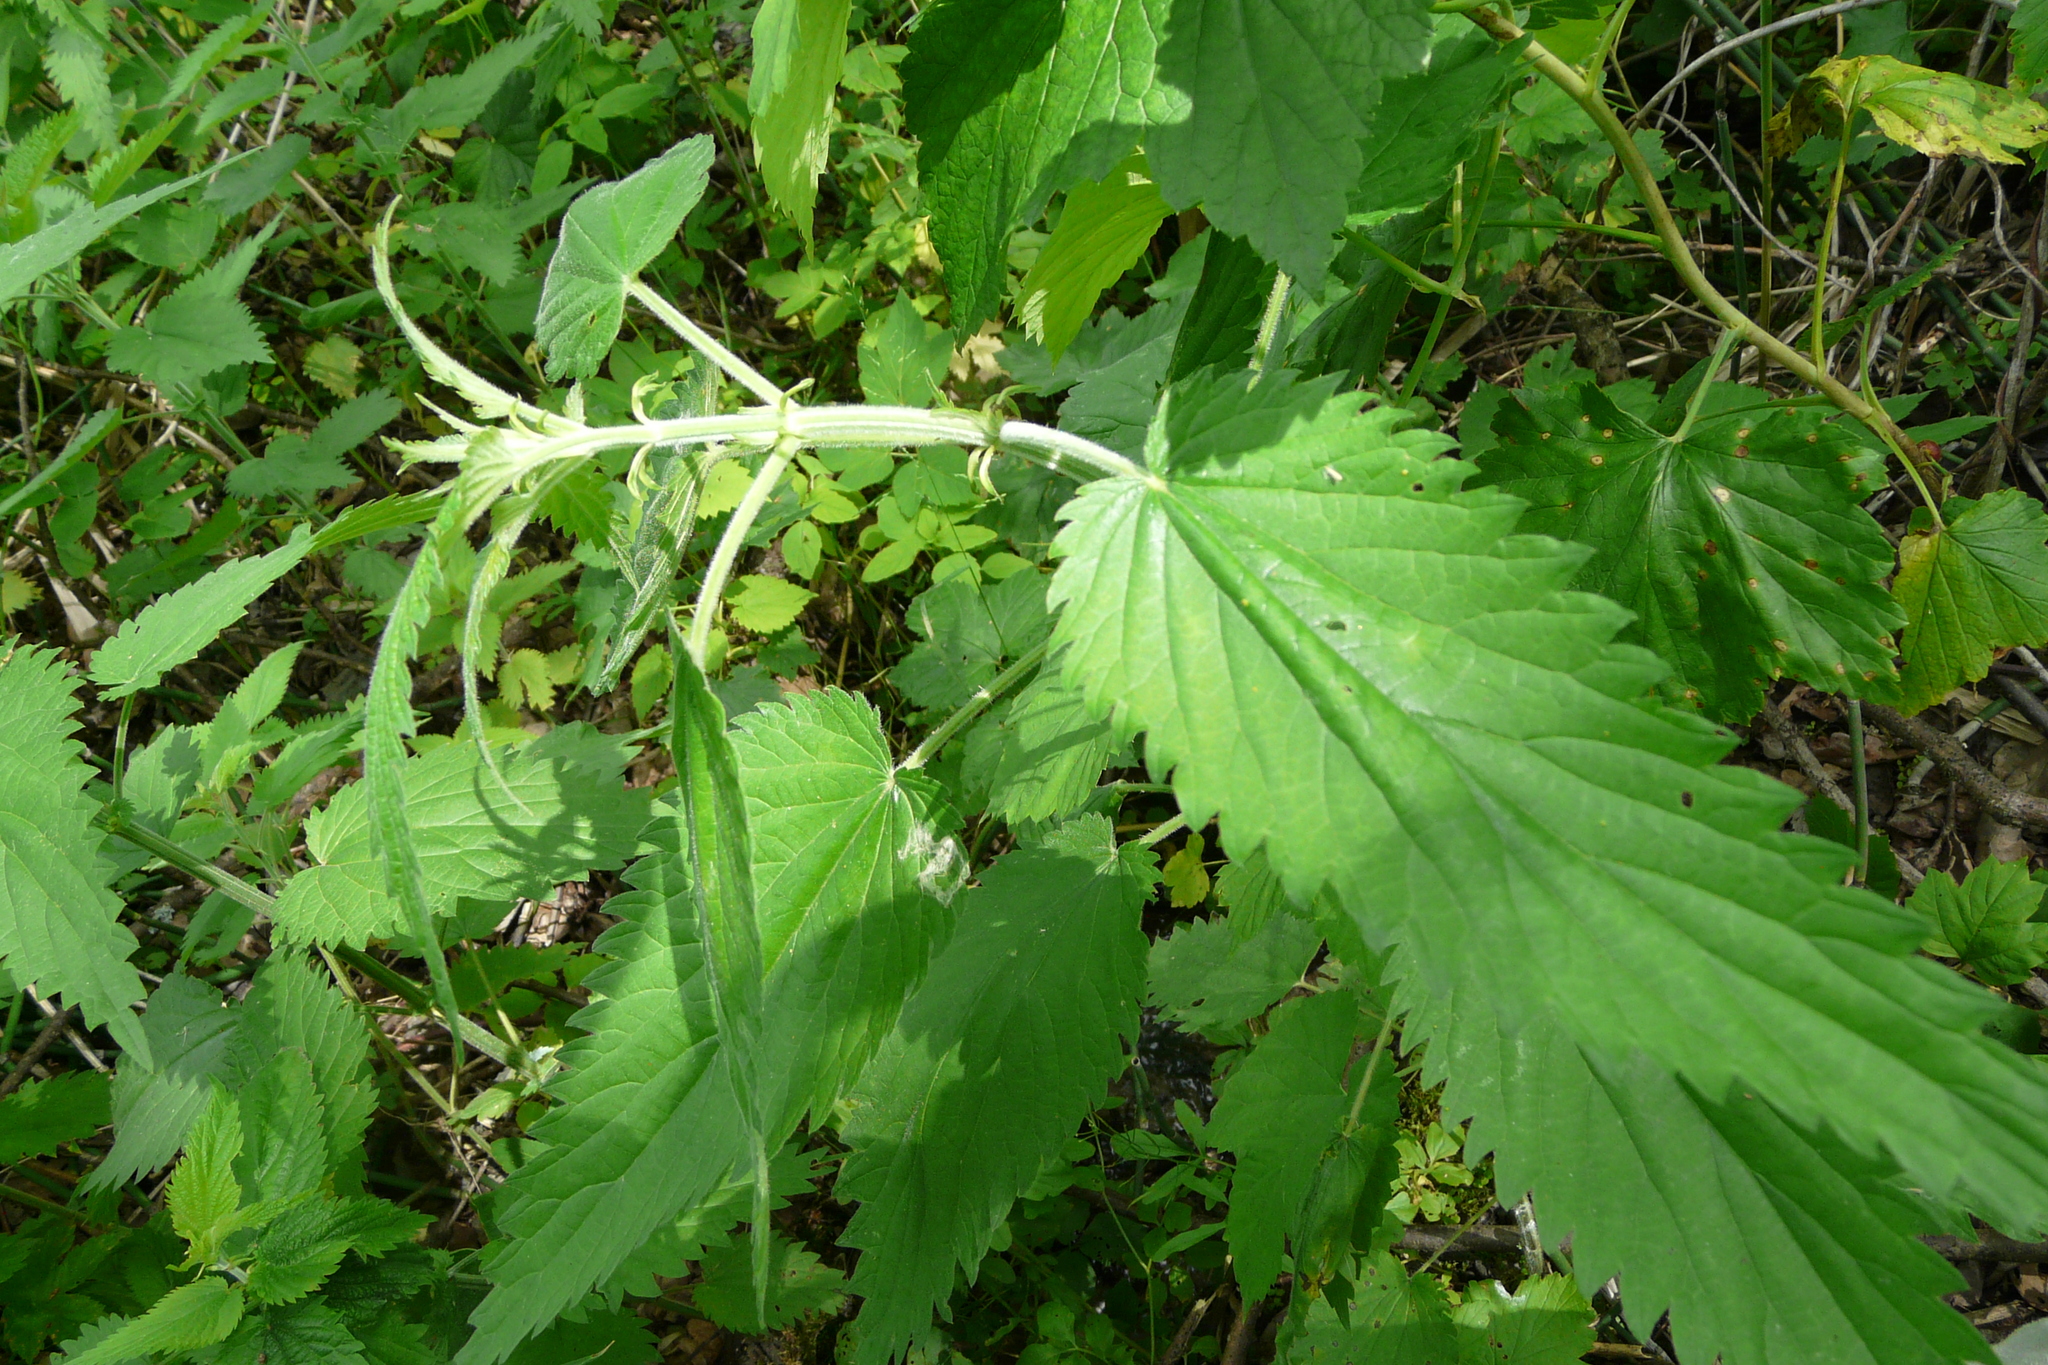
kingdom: Plantae
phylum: Tracheophyta
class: Magnoliopsida
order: Rosales
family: Urticaceae
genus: Urtica
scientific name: Urtica galeopsifolia
